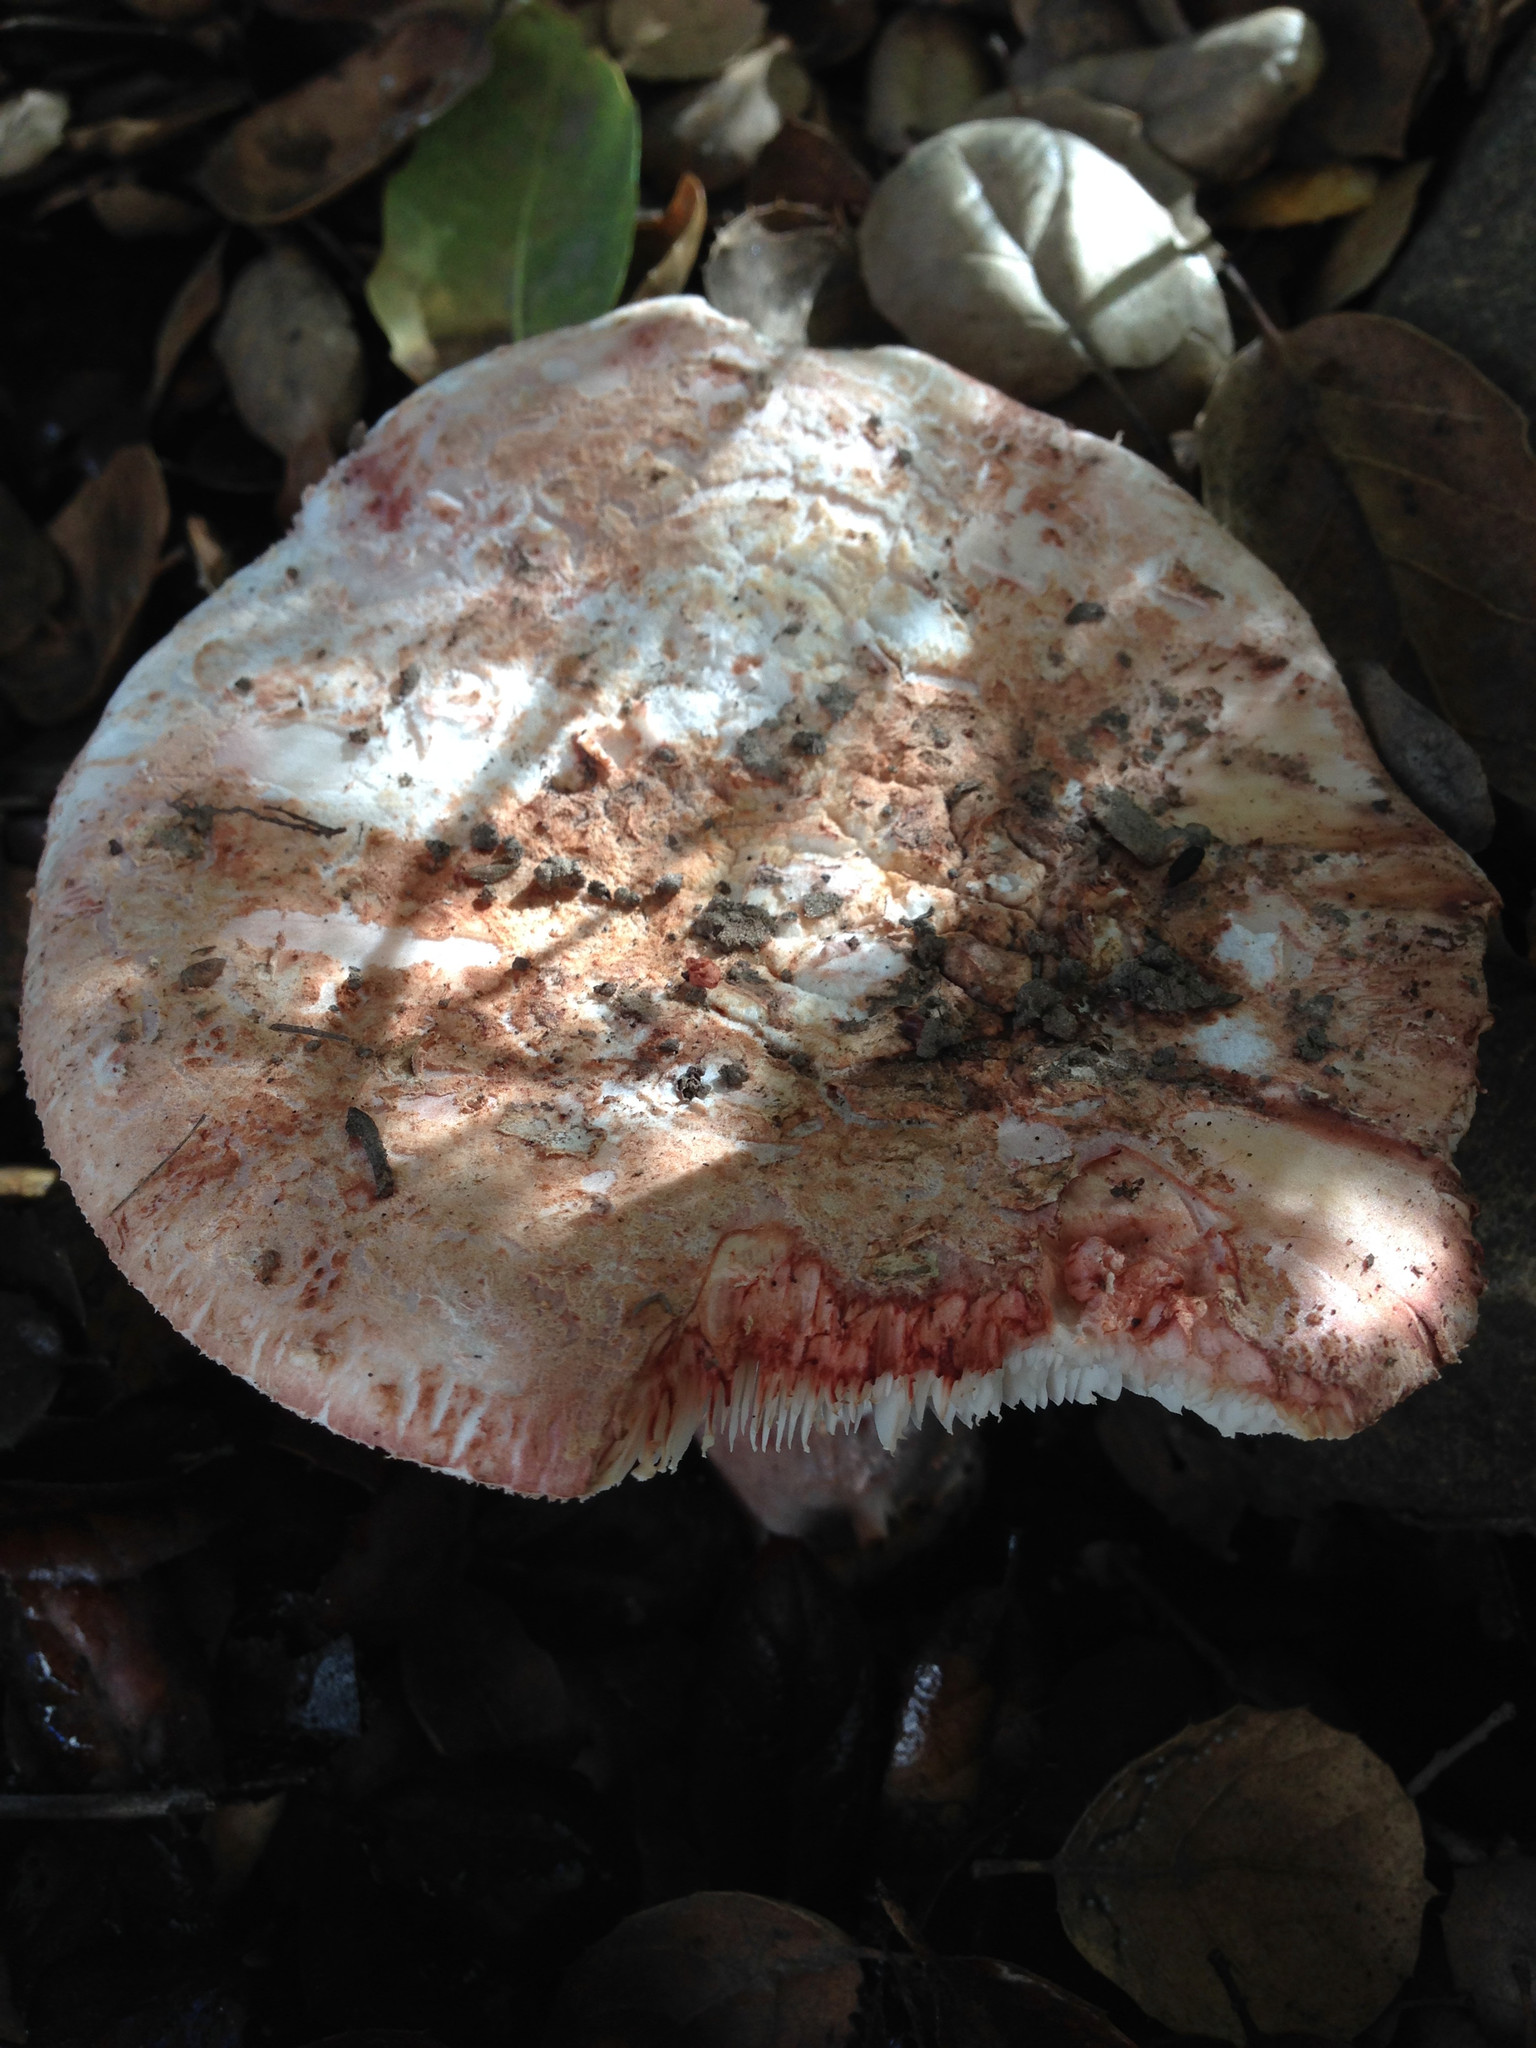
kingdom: Fungi
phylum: Basidiomycota
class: Agaricomycetes
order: Agaricales
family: Amanitaceae
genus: Amanita
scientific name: Amanita novinupta
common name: Blushing bride
